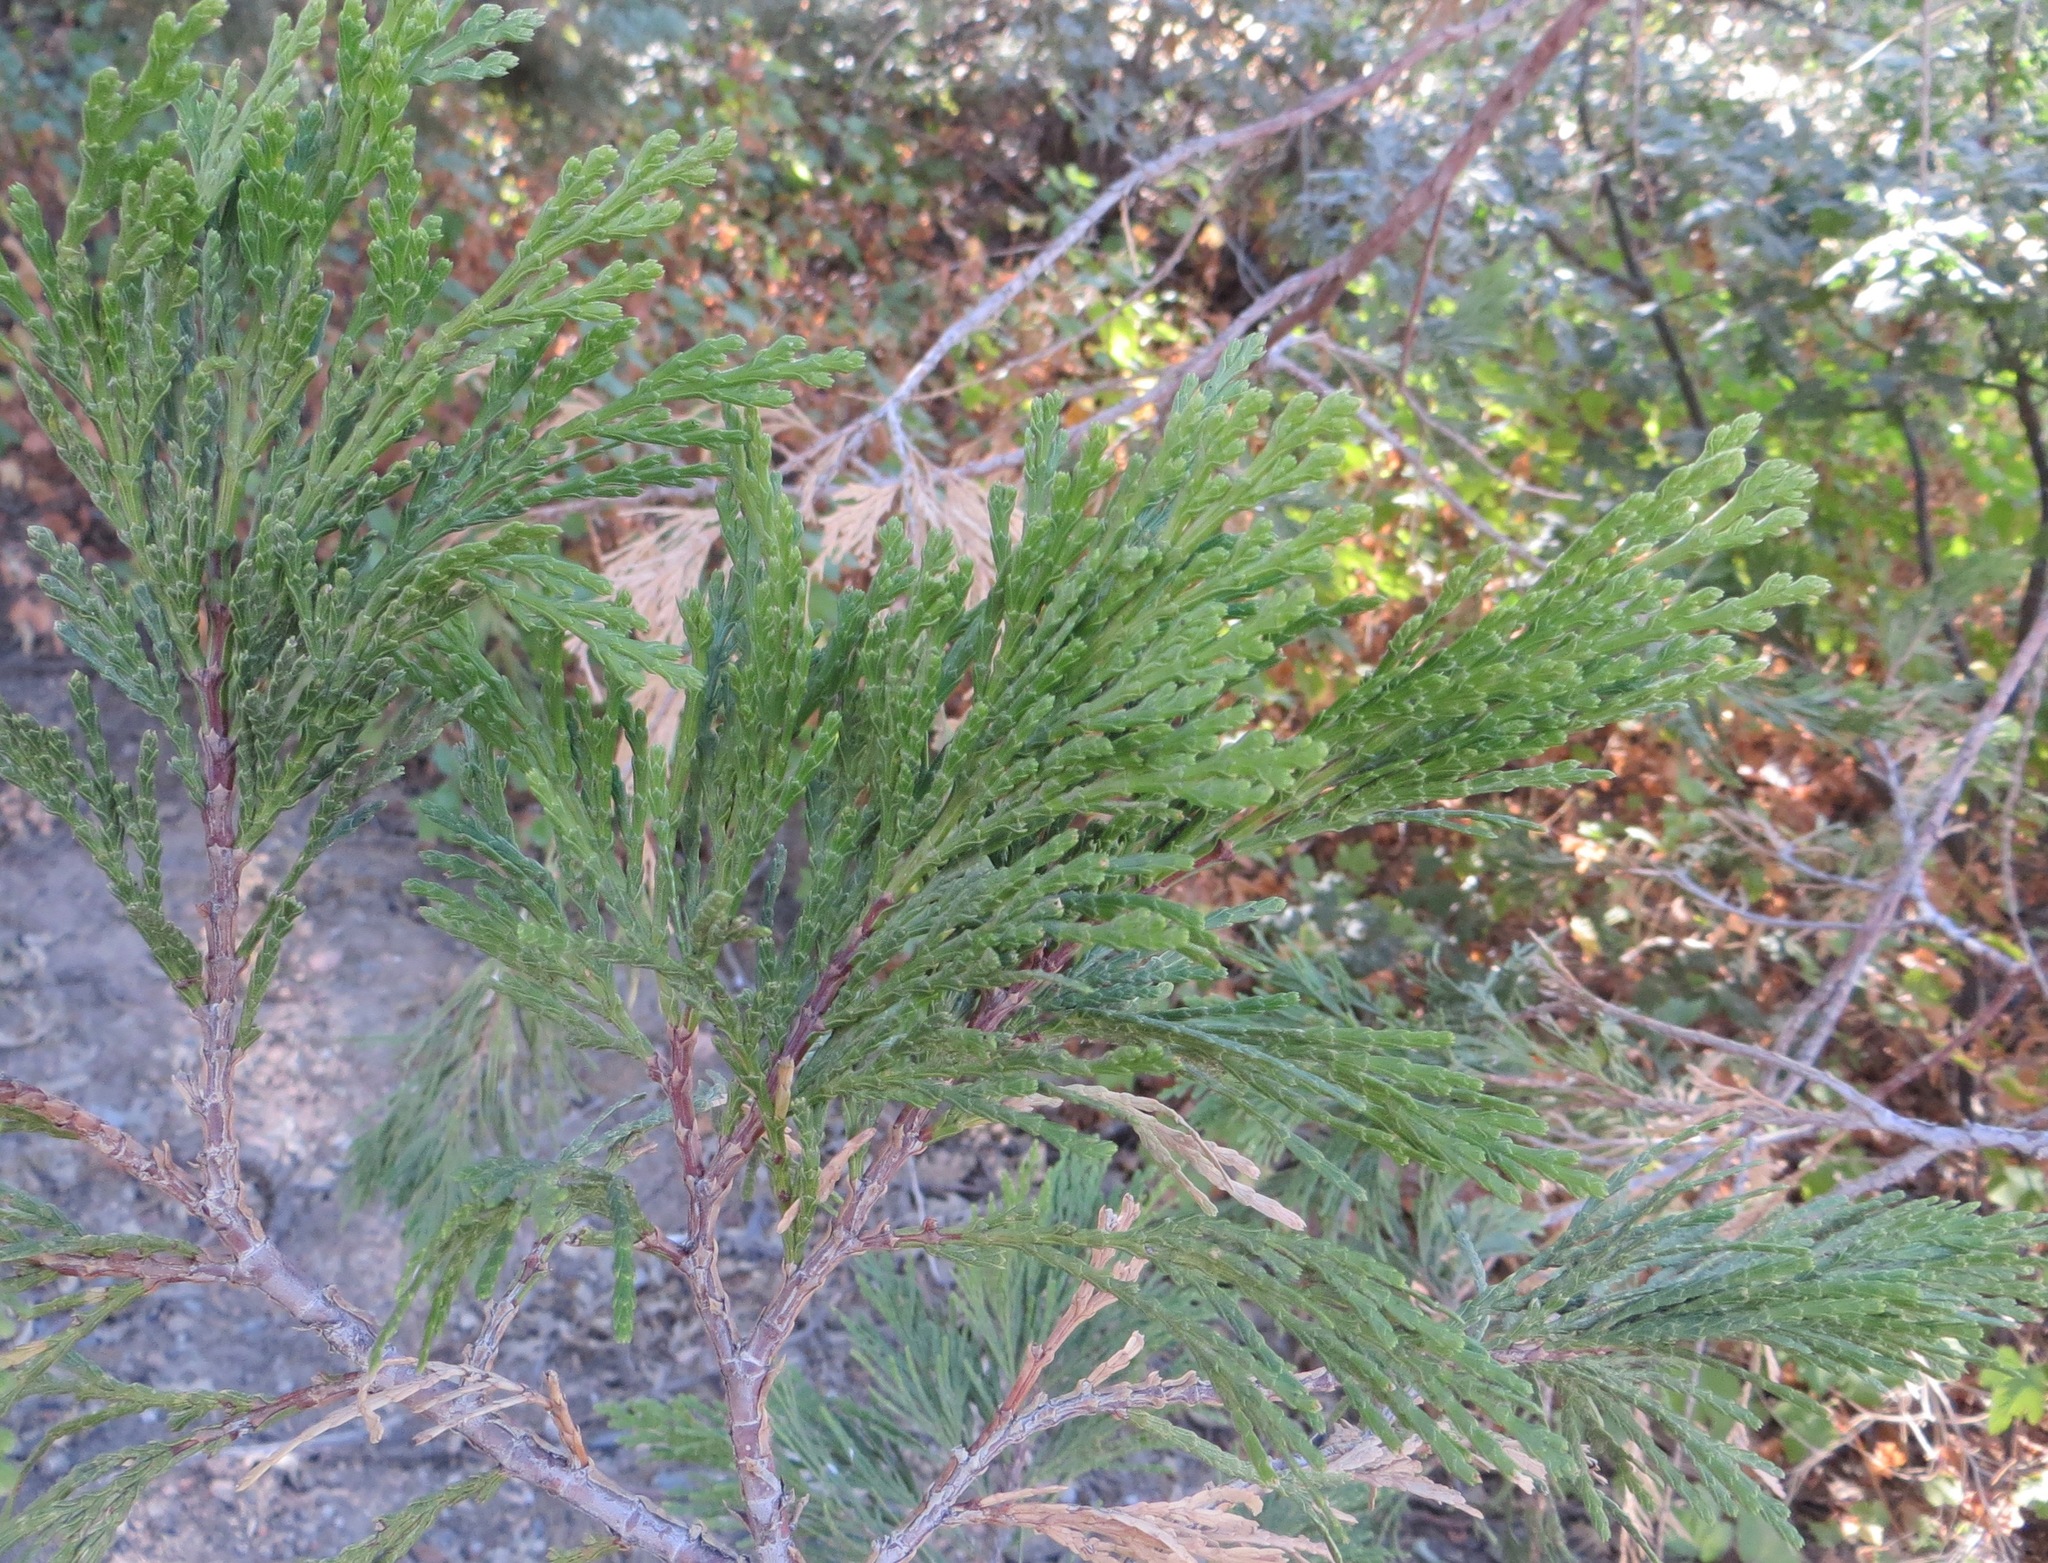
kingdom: Plantae
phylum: Tracheophyta
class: Pinopsida
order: Pinales
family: Cupressaceae
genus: Calocedrus
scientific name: Calocedrus decurrens
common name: Californian incense-cedar
